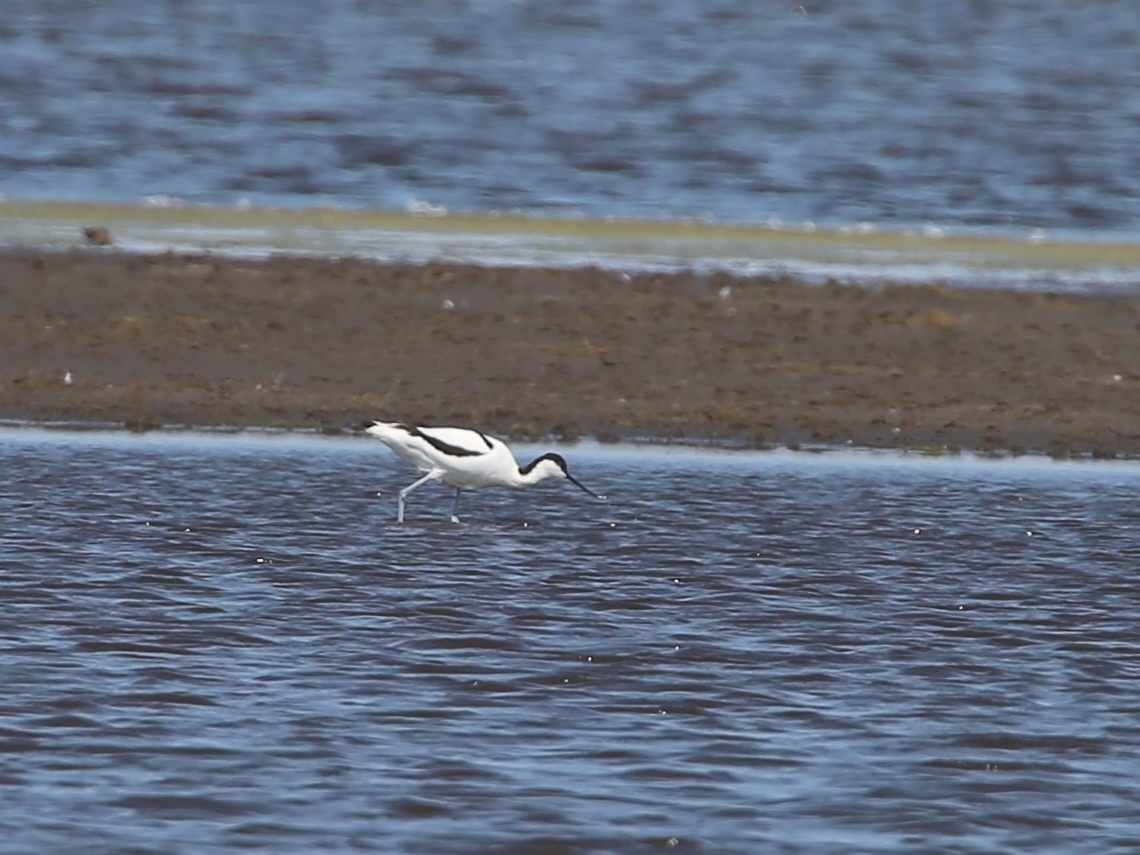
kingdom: Animalia
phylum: Chordata
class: Aves
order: Charadriiformes
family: Recurvirostridae
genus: Recurvirostra
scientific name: Recurvirostra avosetta
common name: Pied avocet
